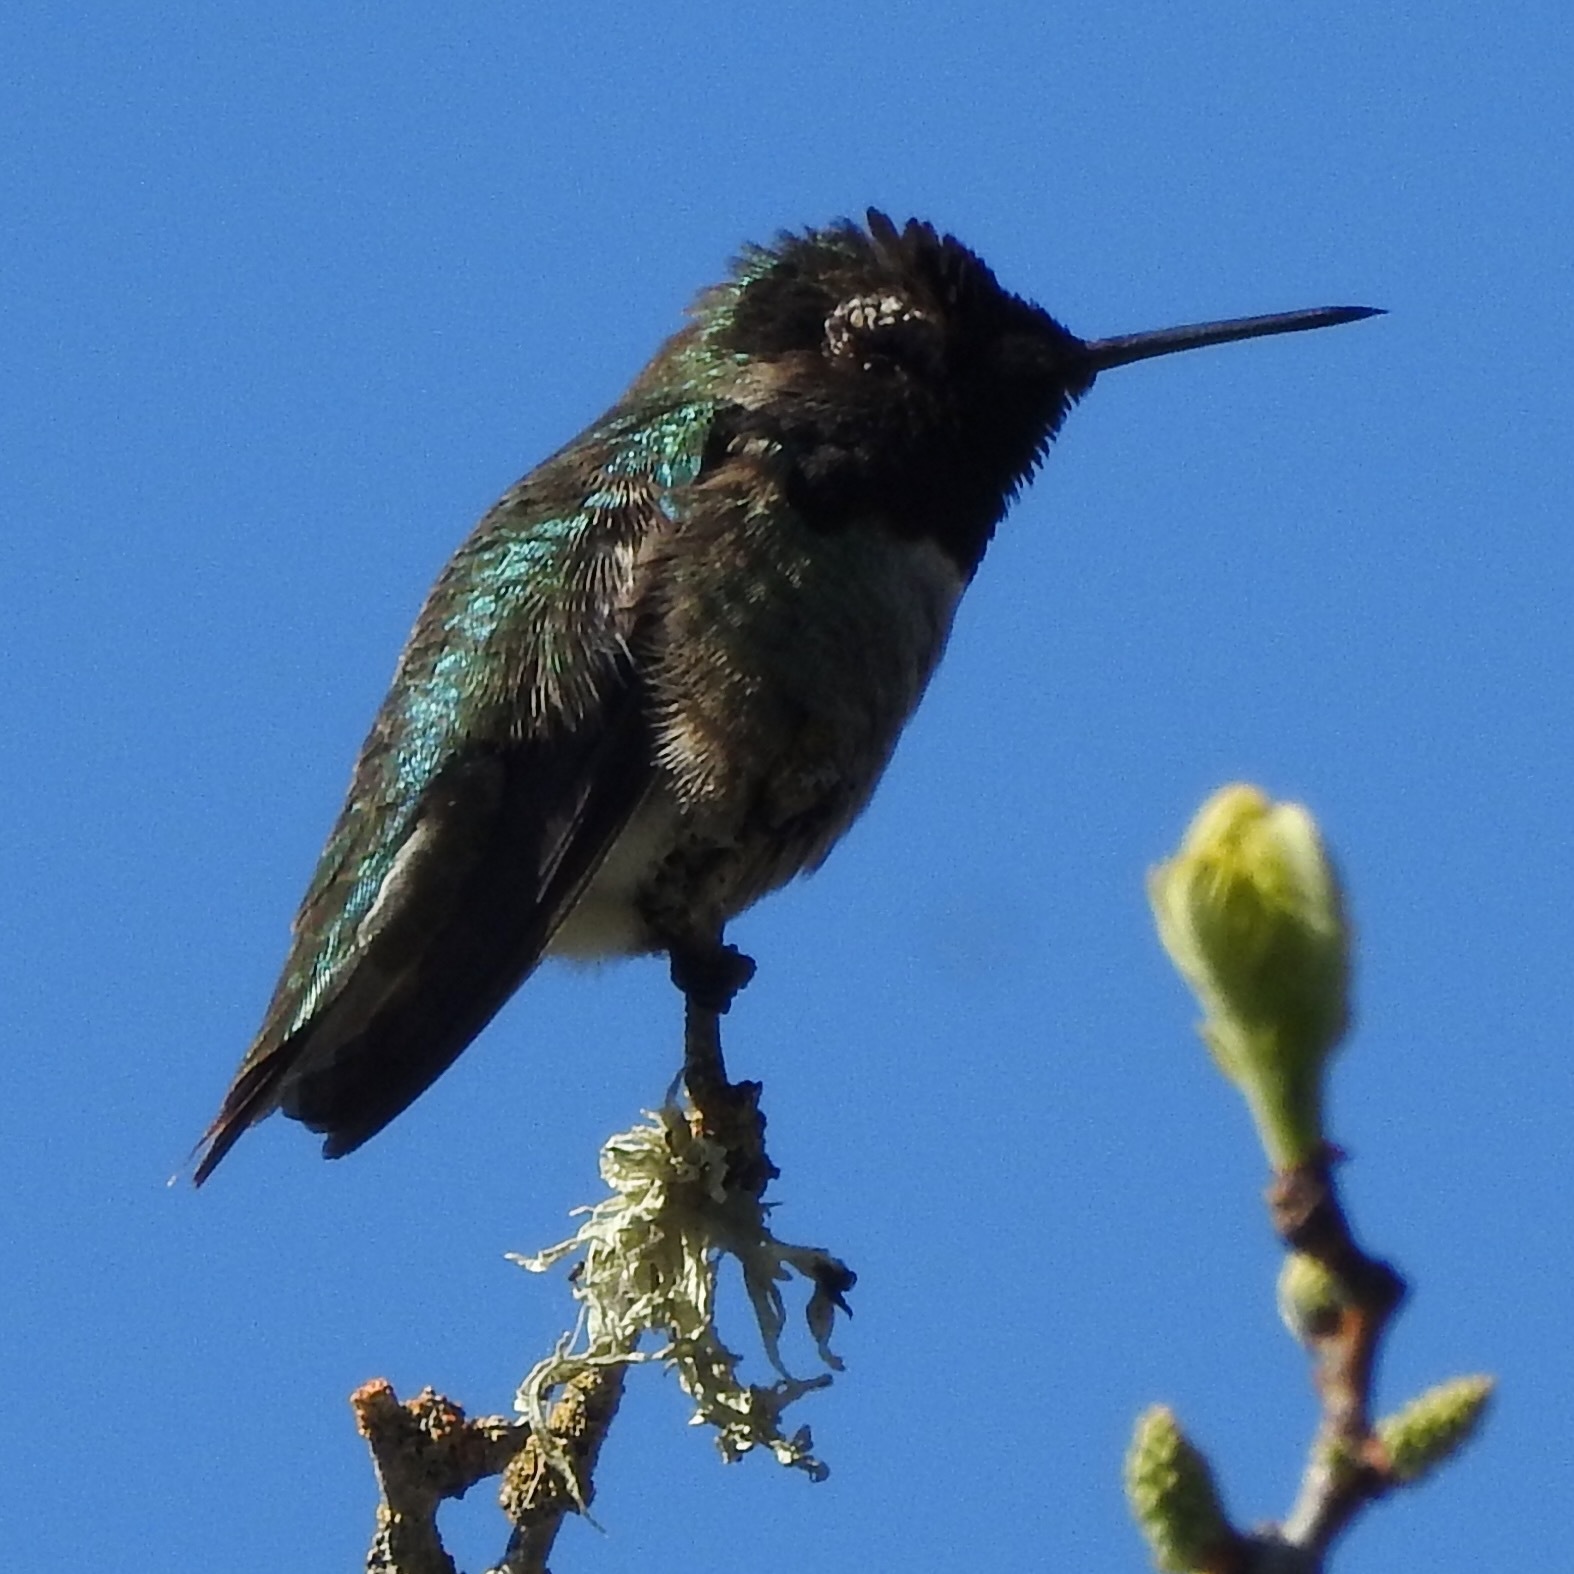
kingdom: Animalia
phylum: Chordata
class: Aves
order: Apodiformes
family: Trochilidae
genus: Calypte
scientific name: Calypte anna
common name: Anna's hummingbird
